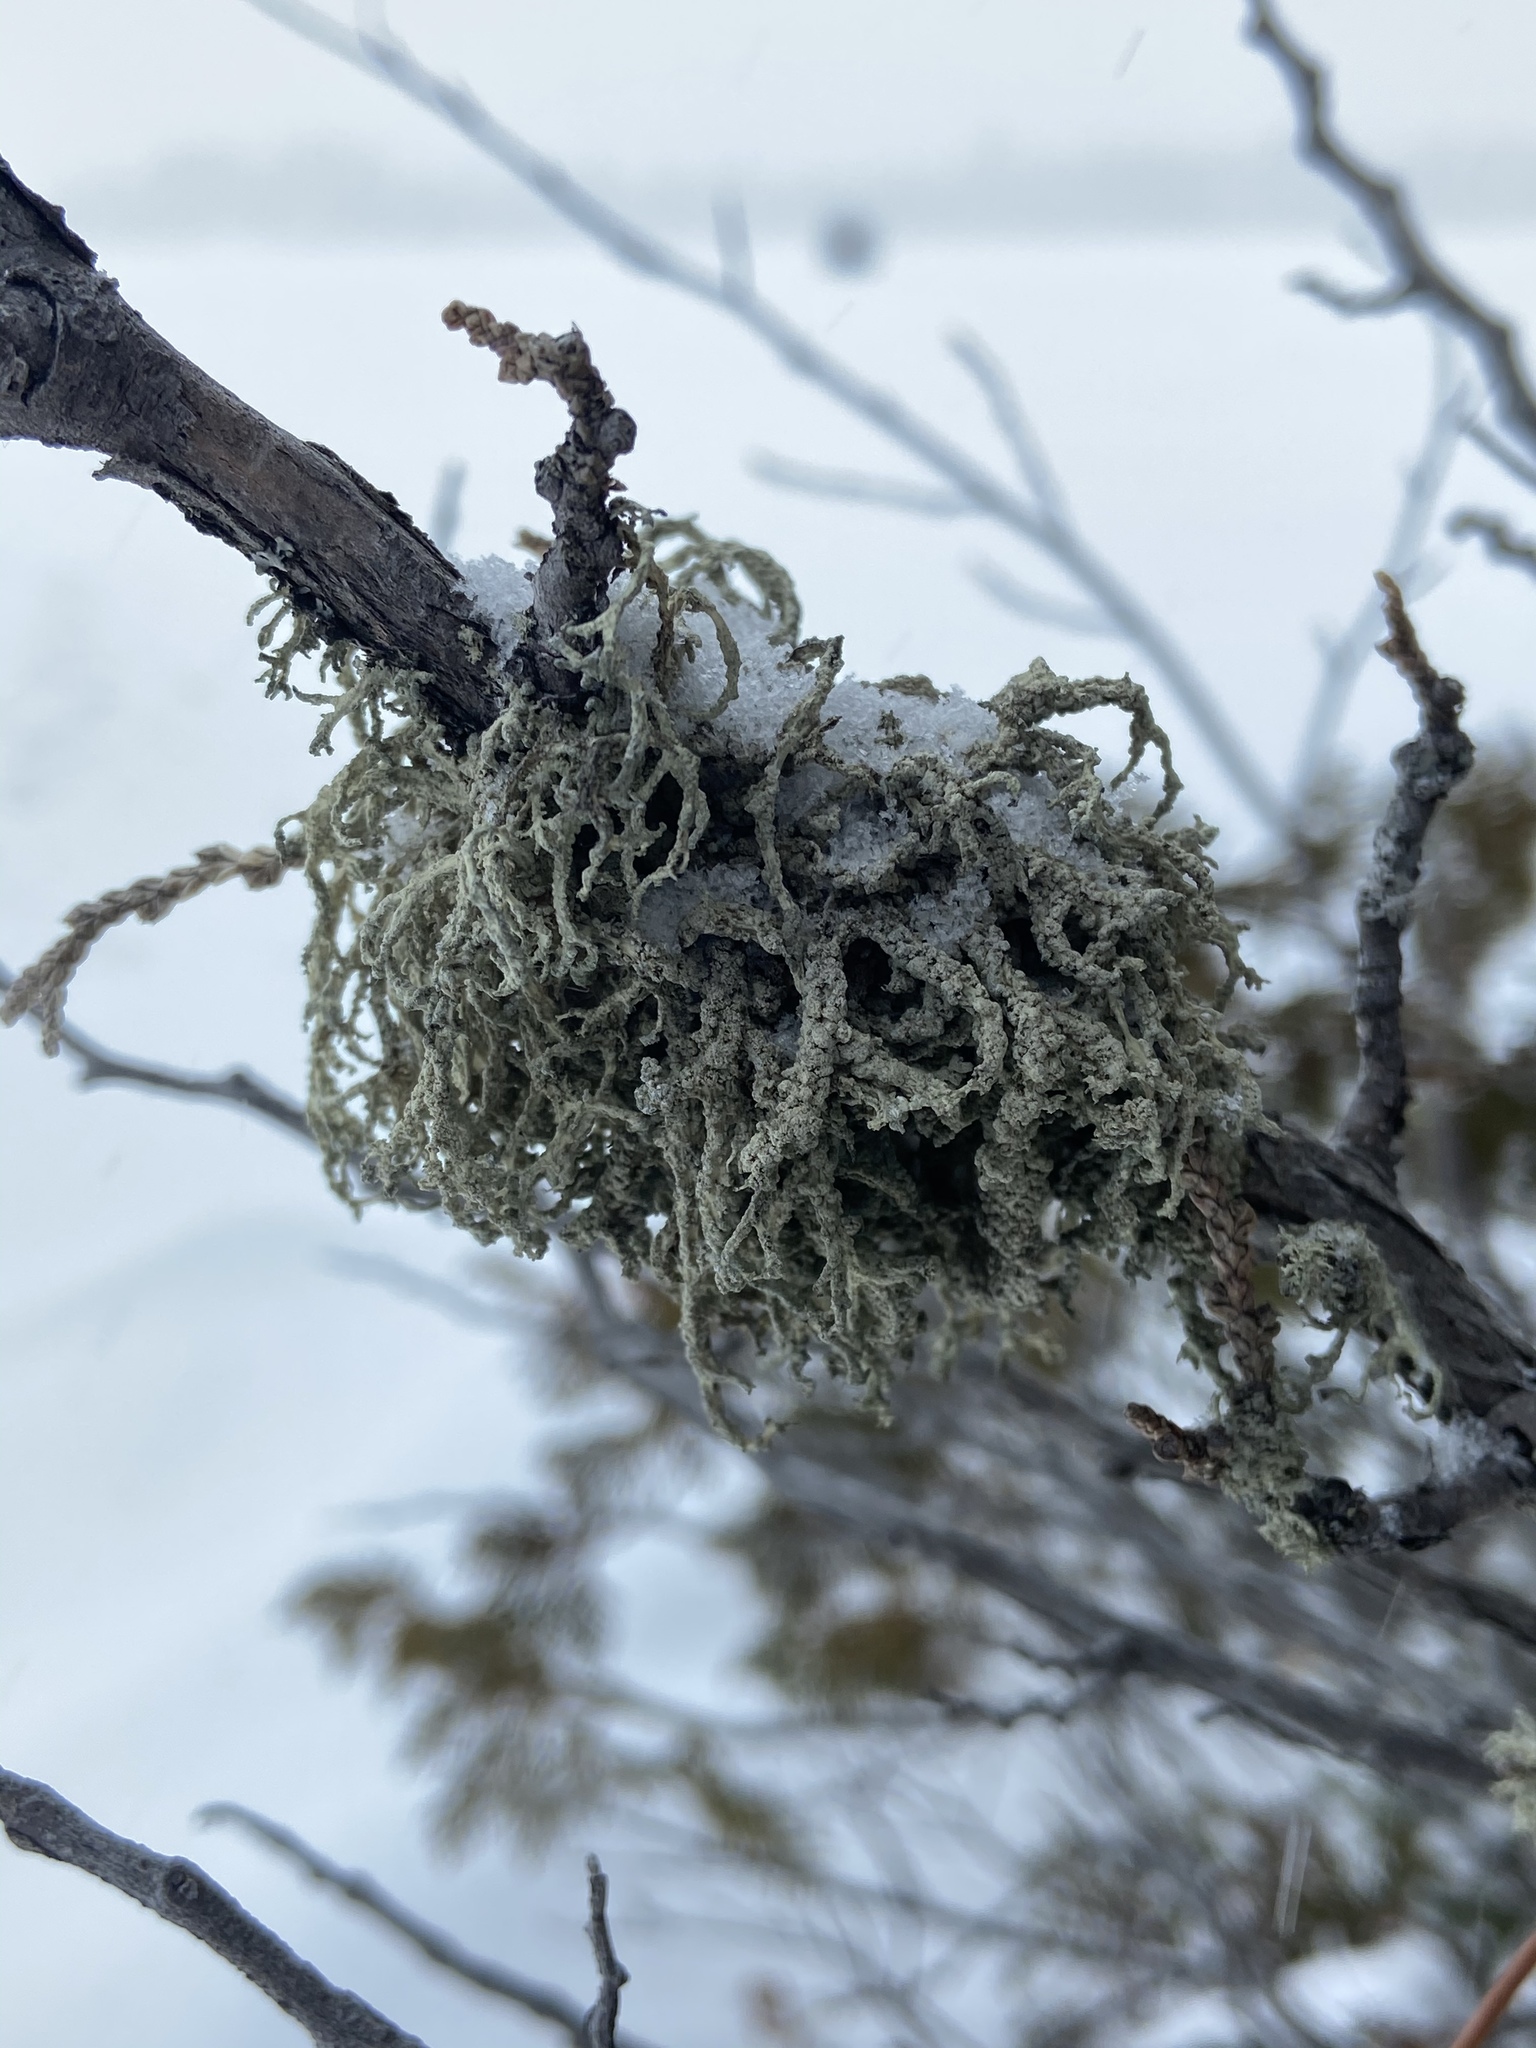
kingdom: Fungi
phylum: Ascomycota
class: Lecanoromycetes
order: Lecanorales
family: Parmeliaceae
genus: Evernia
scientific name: Evernia mesomorpha
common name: Boreal oak moss lichen
